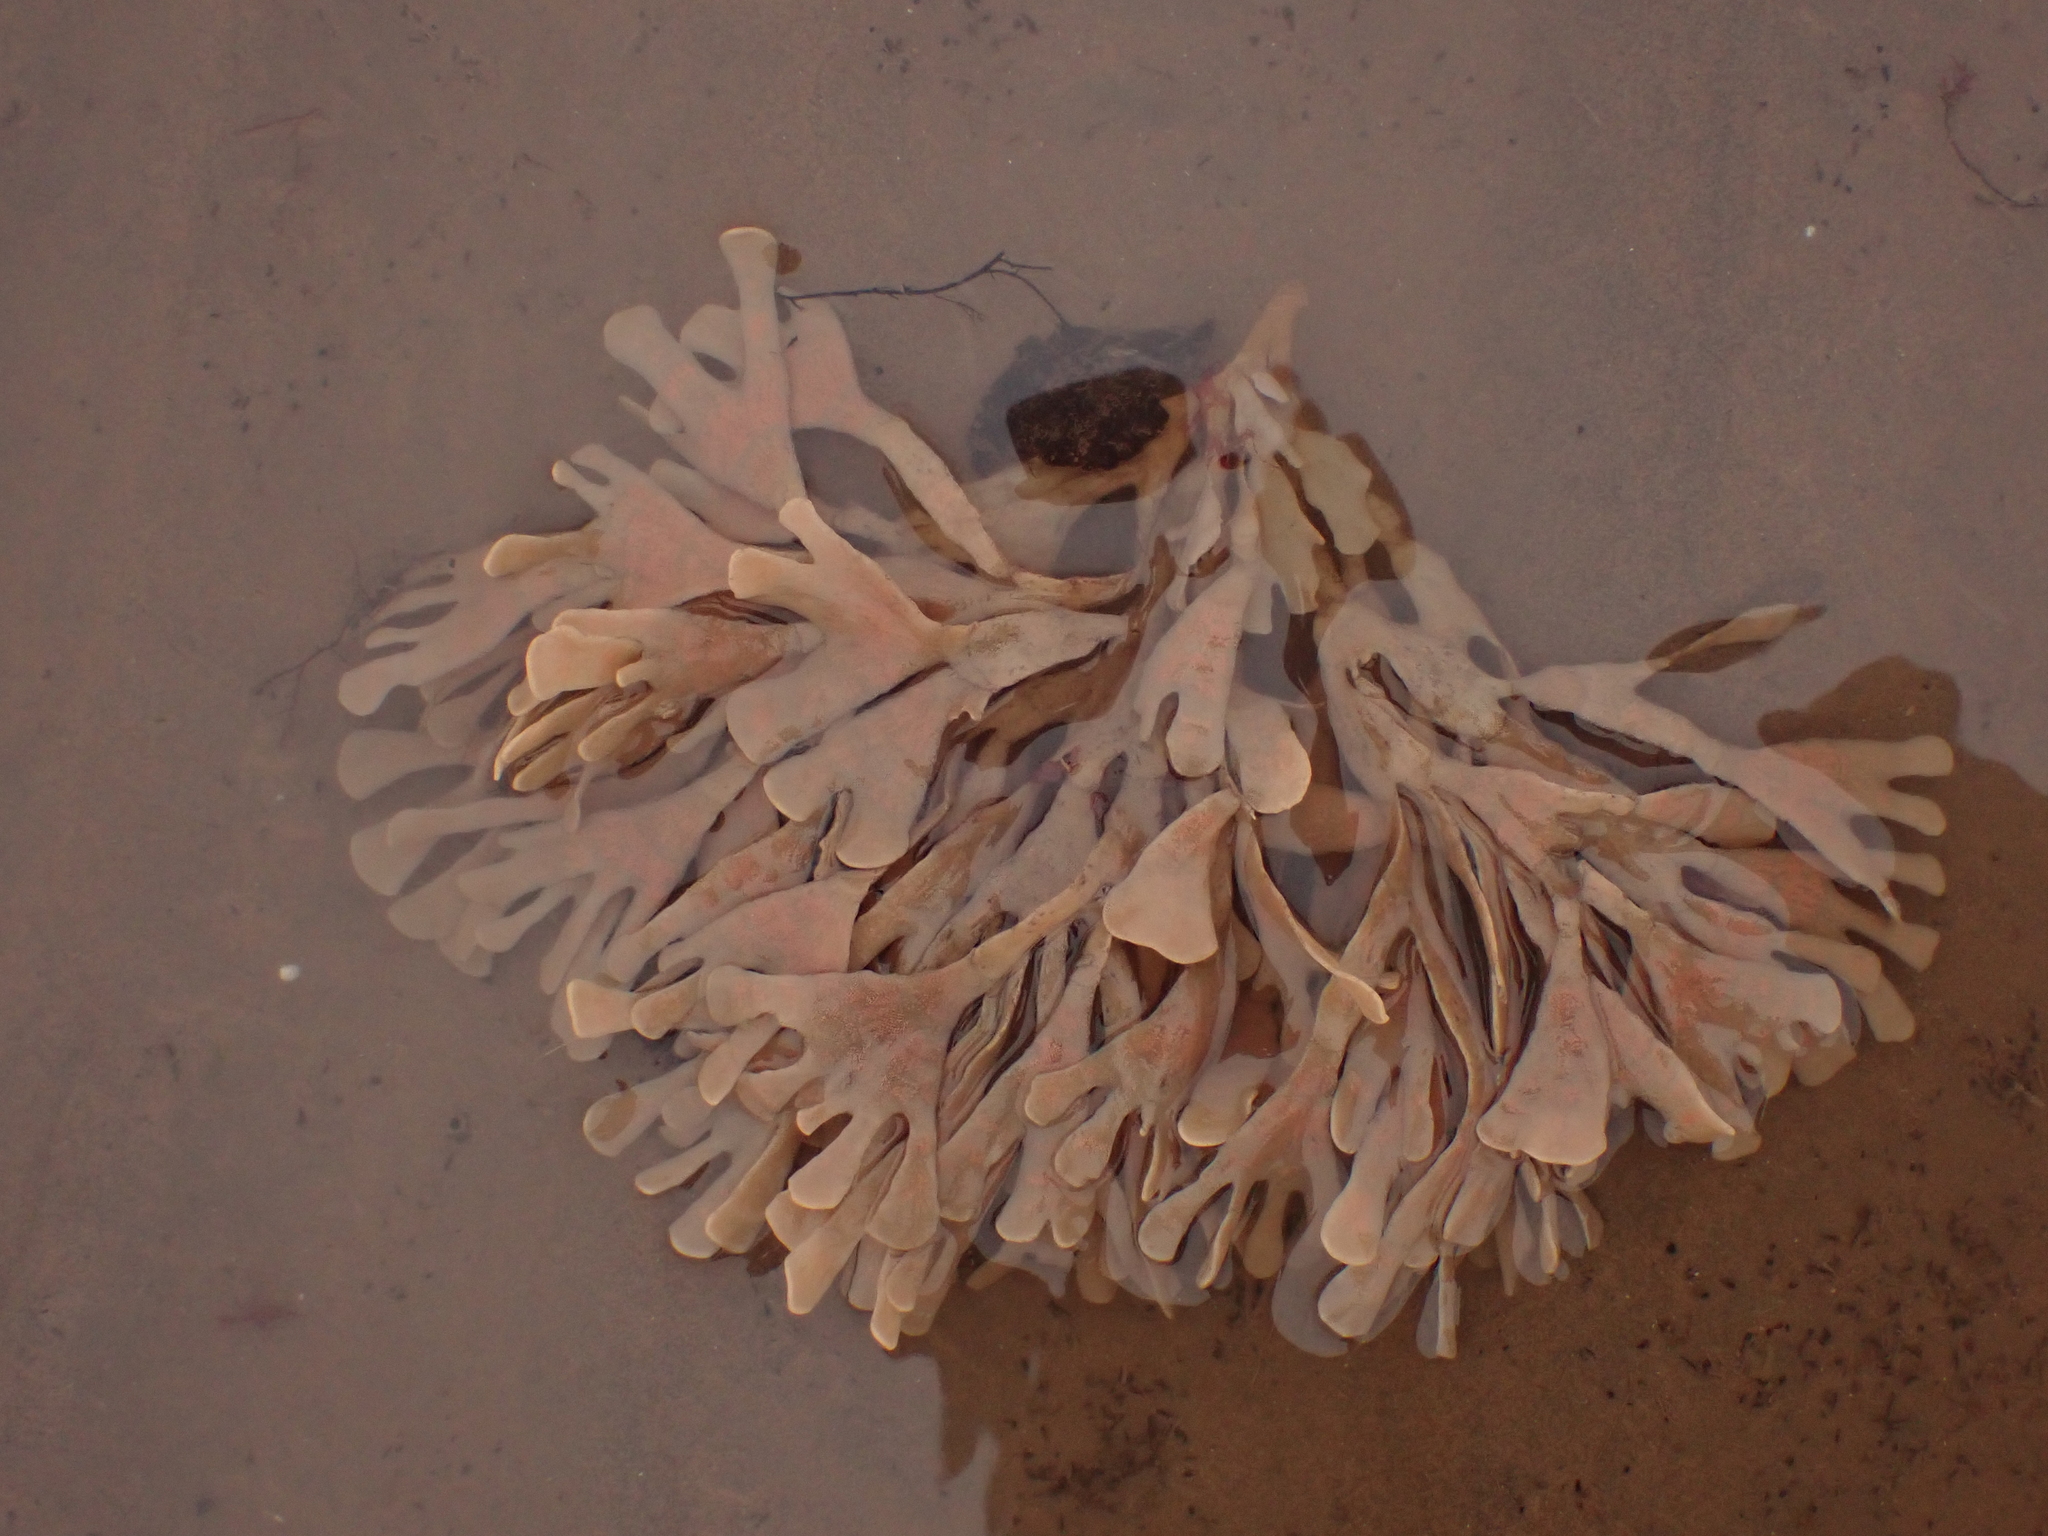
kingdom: Animalia
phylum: Bryozoa
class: Gymnolaemata
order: Cheilostomatida
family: Flustridae
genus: Flustra
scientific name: Flustra foliacea
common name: Hornwrack
